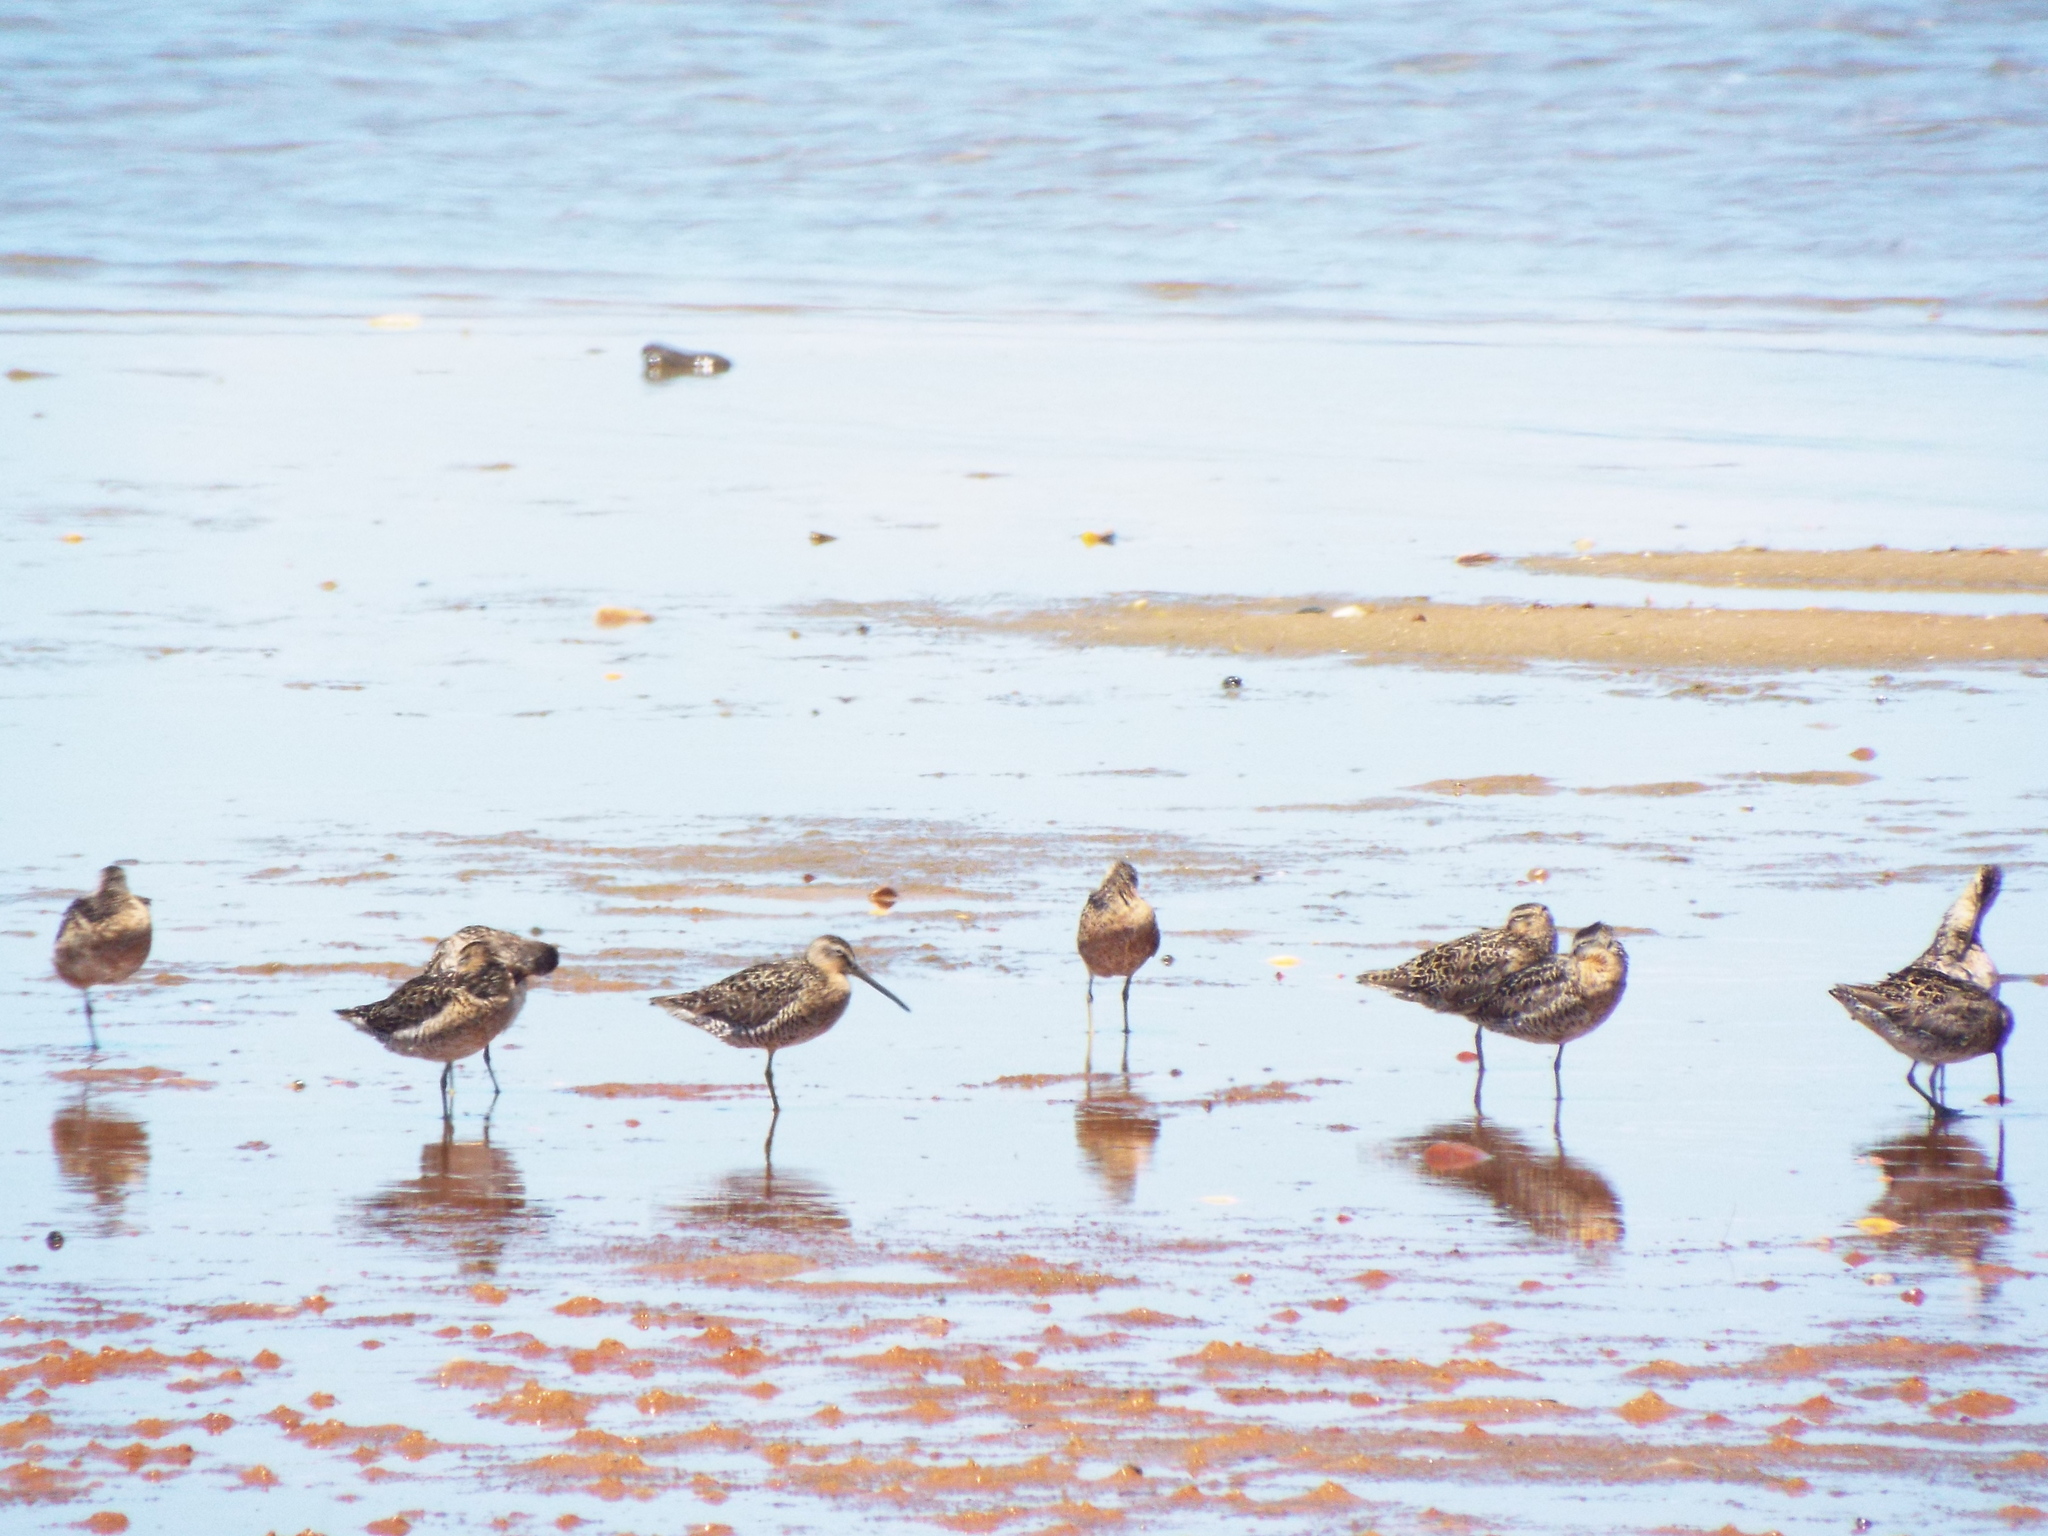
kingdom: Animalia
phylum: Chordata
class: Aves
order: Charadriiformes
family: Scolopacidae
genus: Limnodromus
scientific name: Limnodromus griseus
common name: Short-billed dowitcher
